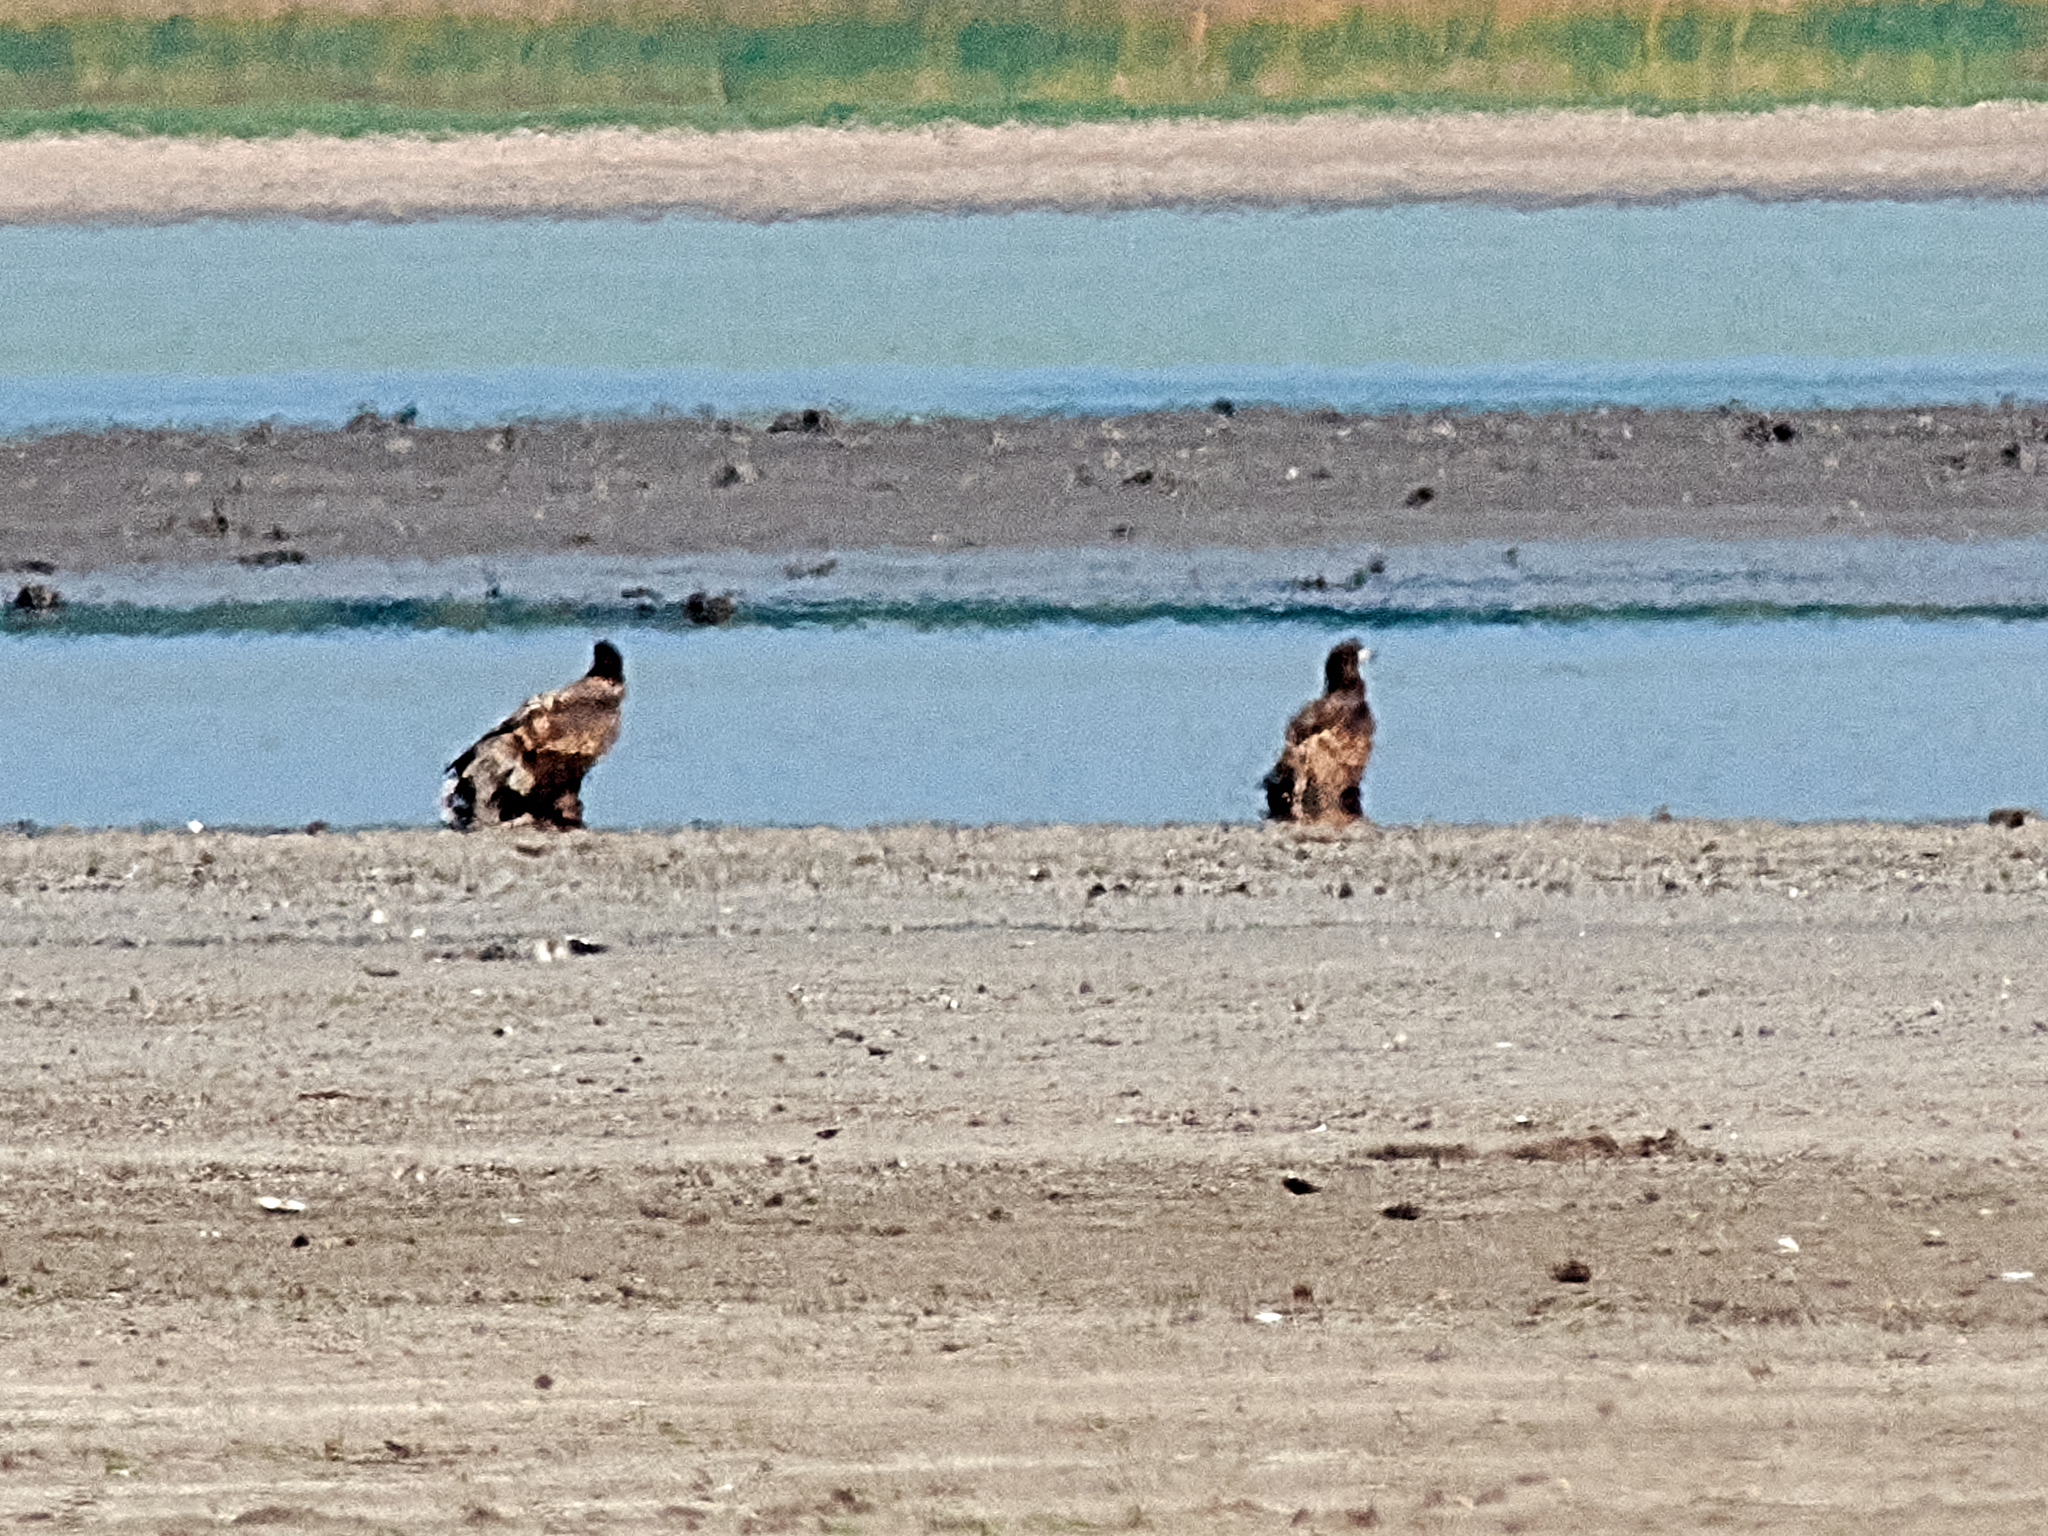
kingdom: Animalia
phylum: Chordata
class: Aves
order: Accipitriformes
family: Accipitridae
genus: Haliaeetus
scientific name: Haliaeetus albicilla
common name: White-tailed eagle
